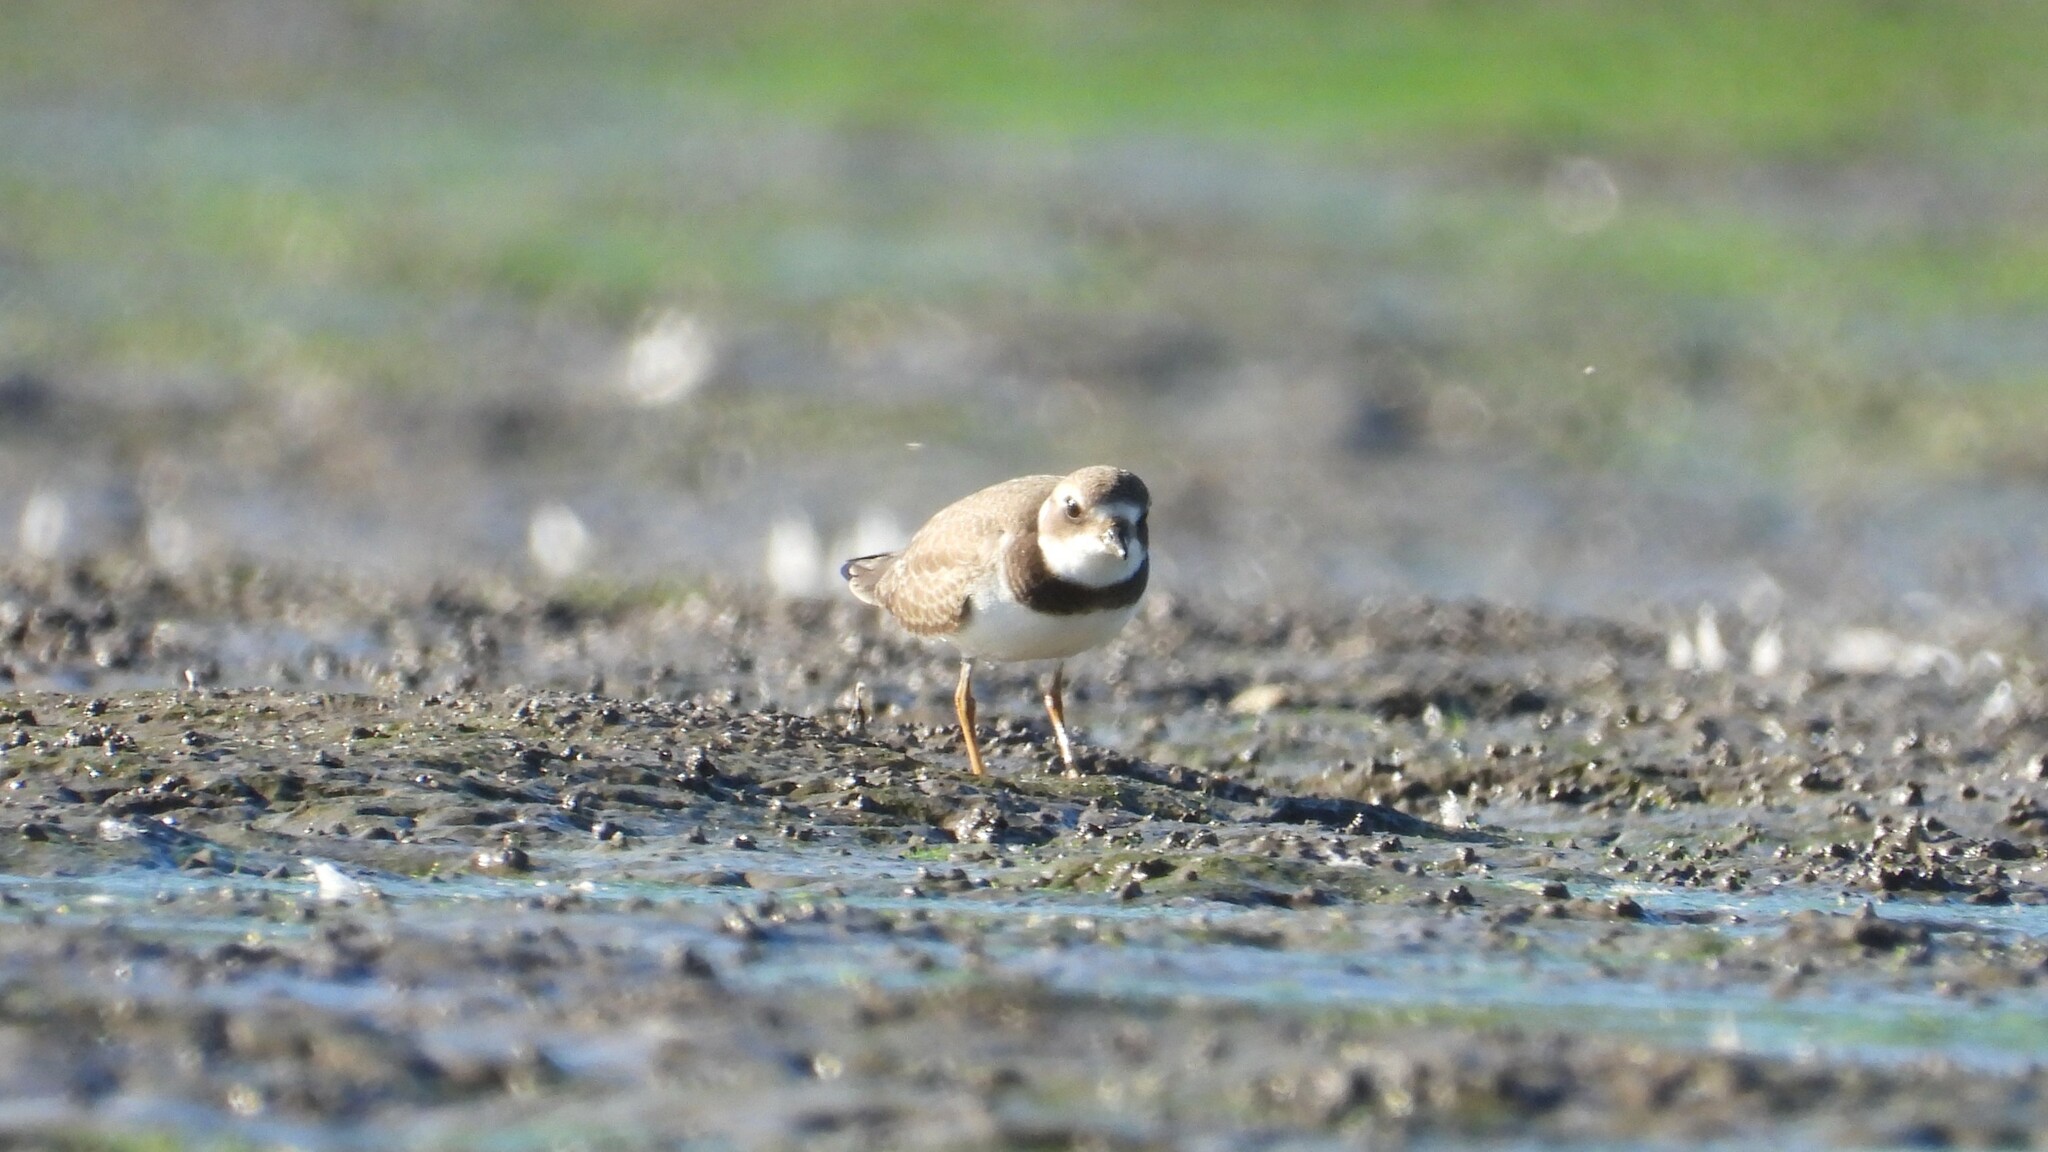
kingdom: Animalia
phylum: Chordata
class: Aves
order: Charadriiformes
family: Charadriidae
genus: Charadrius
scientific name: Charadrius semipalmatus
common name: Semipalmated plover
